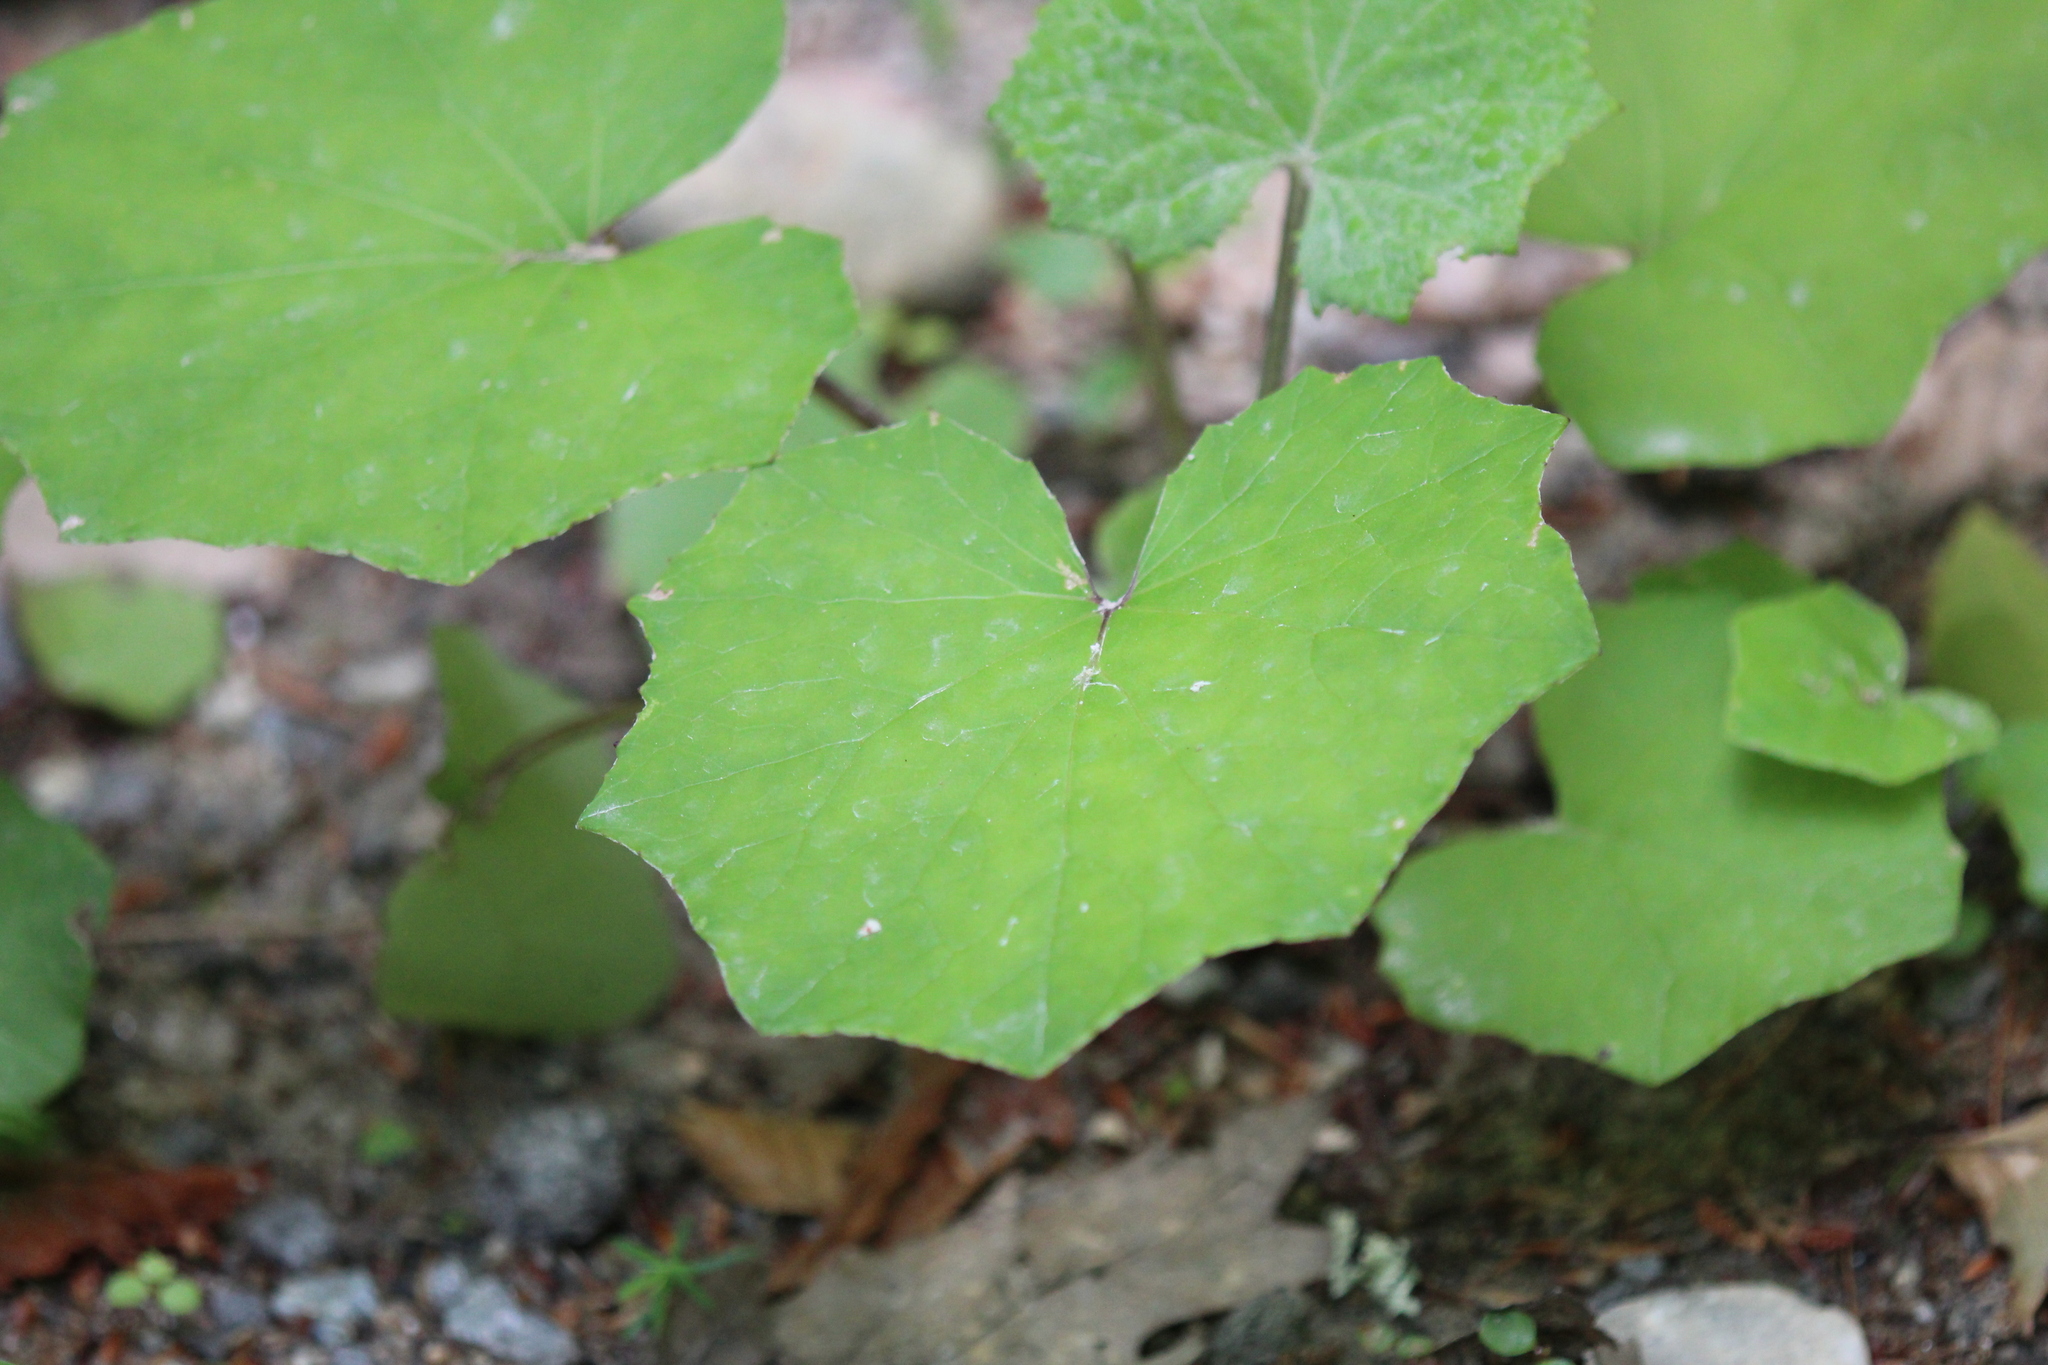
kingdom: Plantae
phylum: Tracheophyta
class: Magnoliopsida
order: Asterales
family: Asteraceae
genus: Tussilago
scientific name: Tussilago farfara
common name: Coltsfoot
